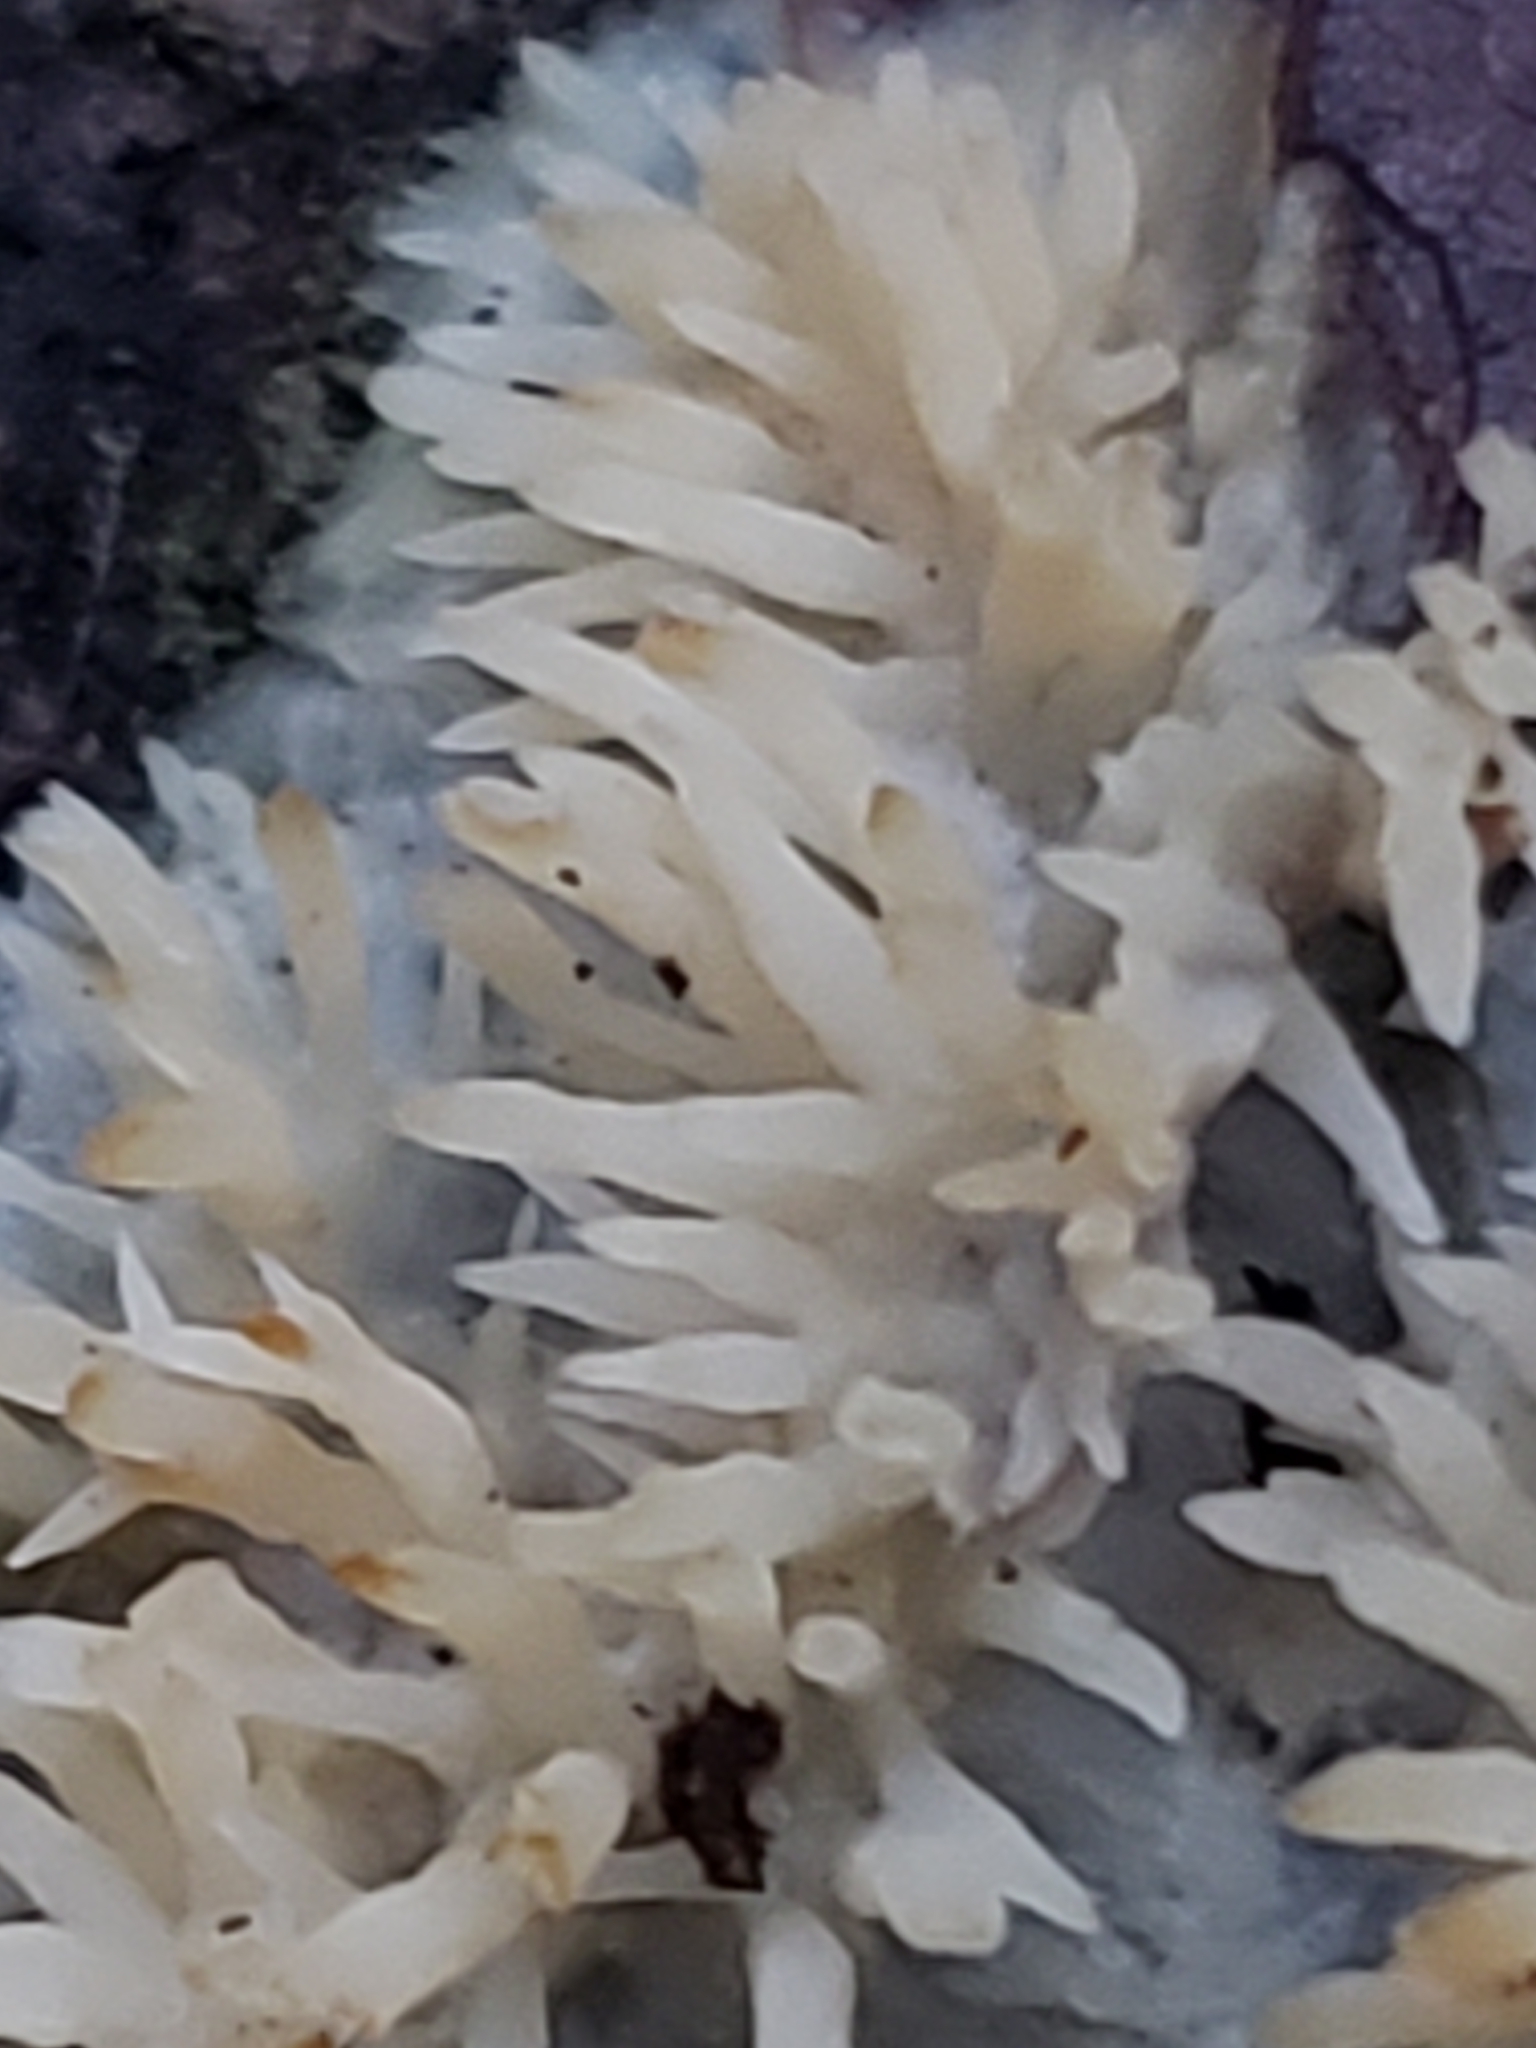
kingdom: Fungi
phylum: Basidiomycota
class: Agaricomycetes
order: Agaricales
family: Radulomycetaceae
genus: Radulomyces
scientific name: Radulomyces copelandii
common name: Asian beauty
